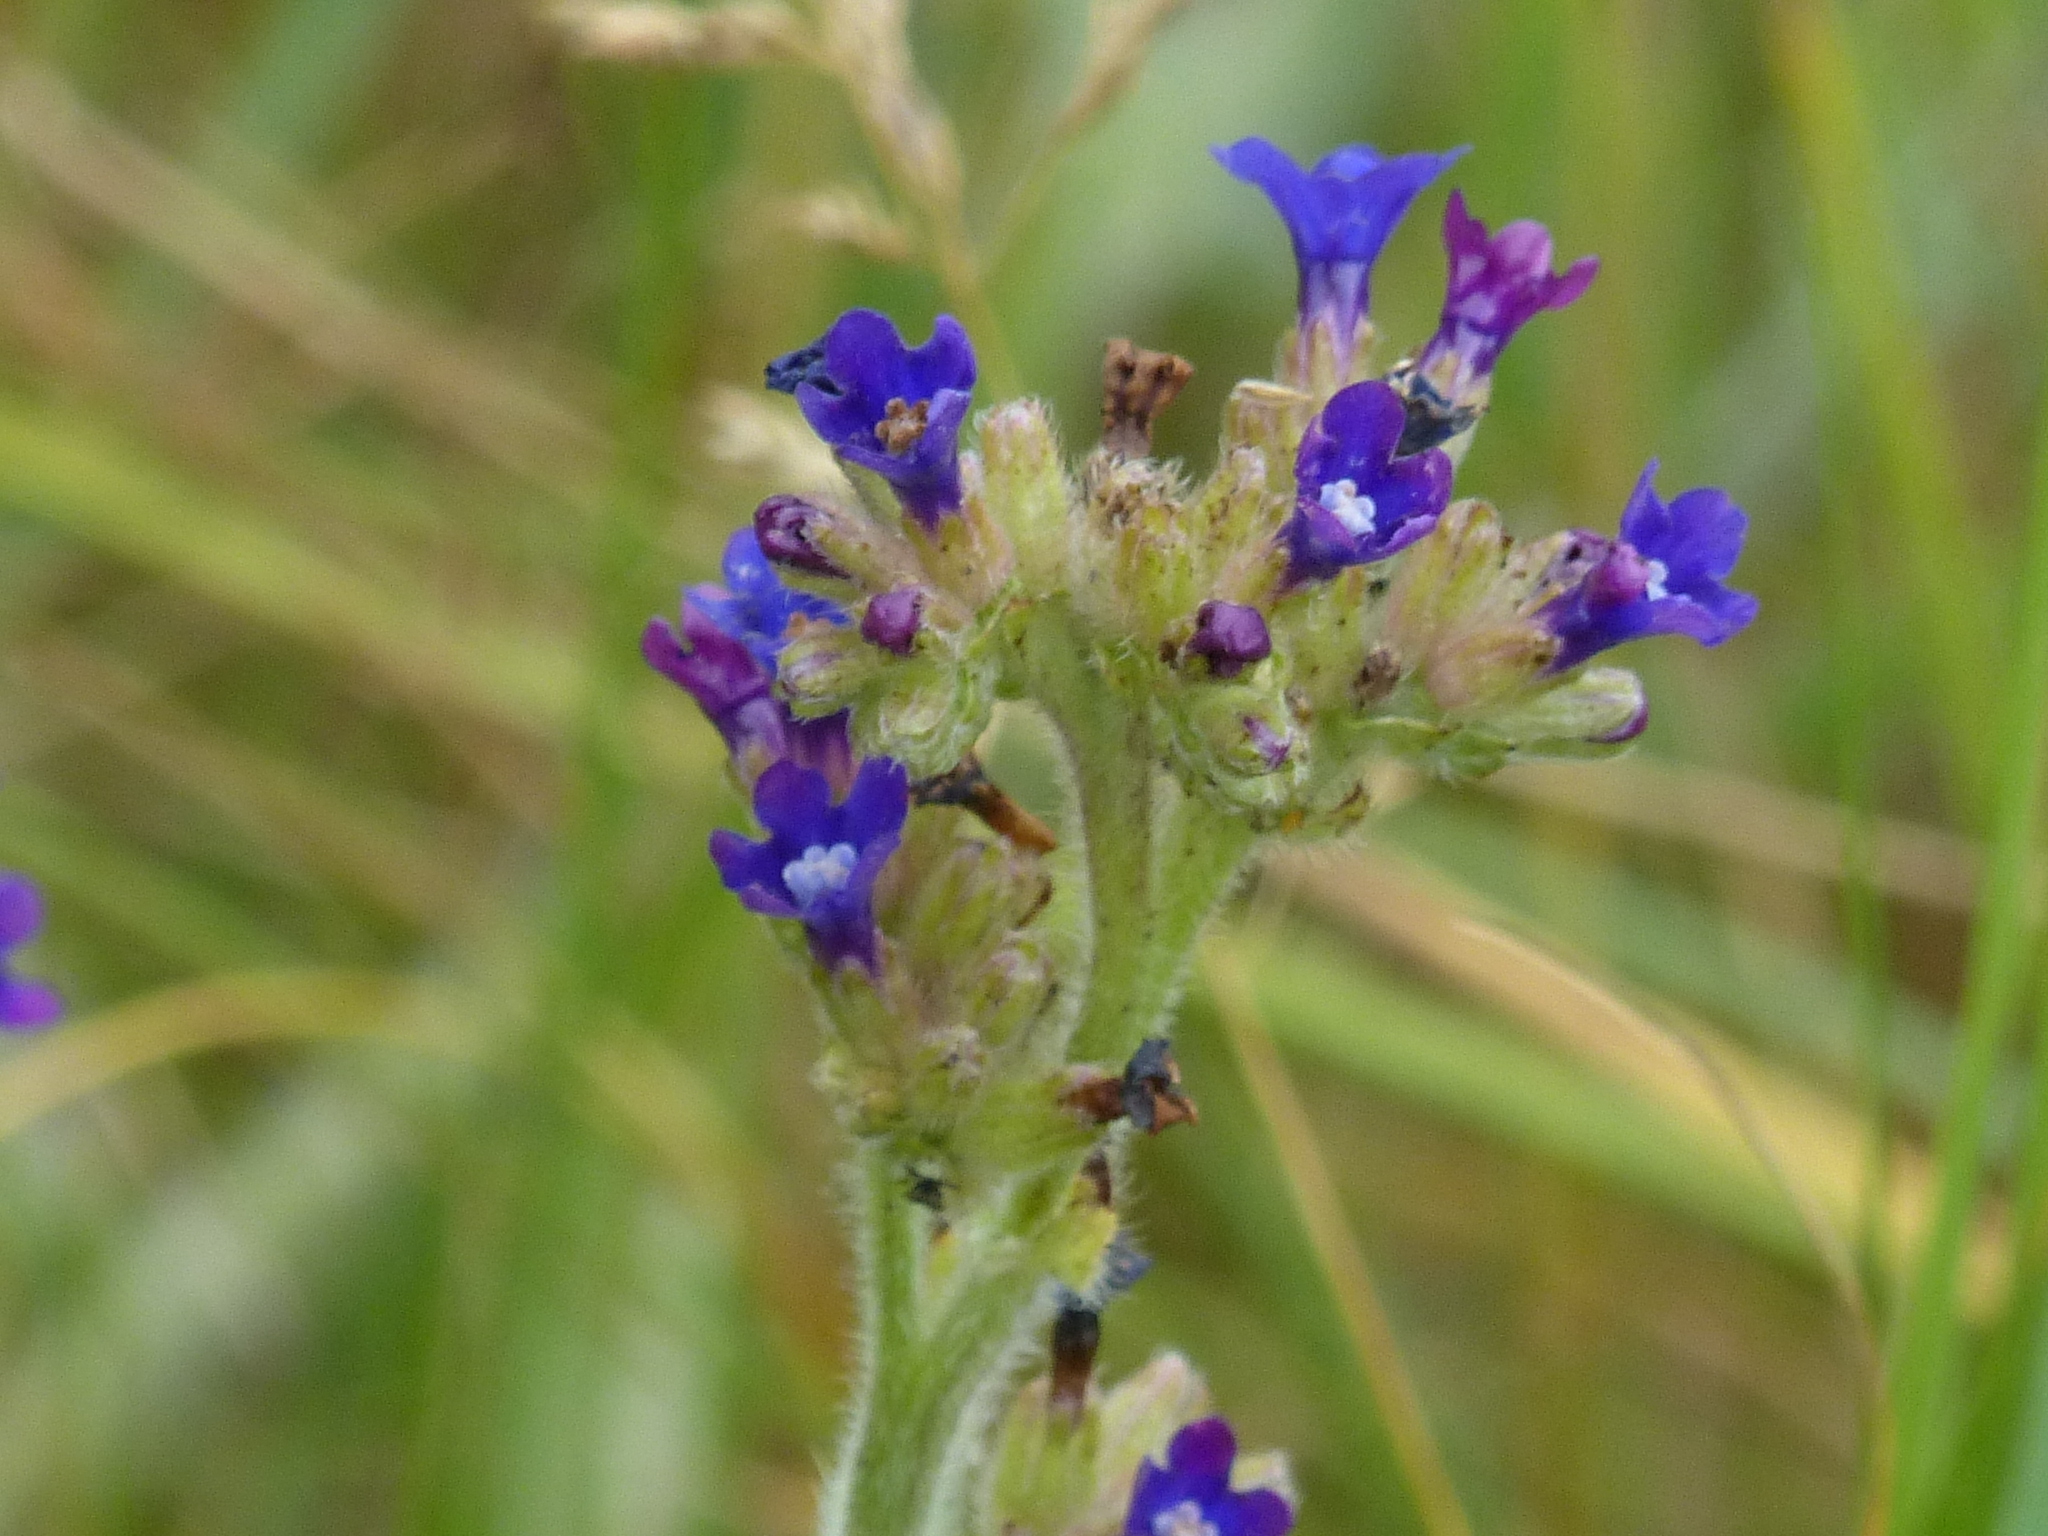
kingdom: Plantae
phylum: Tracheophyta
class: Magnoliopsida
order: Boraginales
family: Boraginaceae
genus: Anchusa
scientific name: Anchusa officinalis
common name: Alkanet
